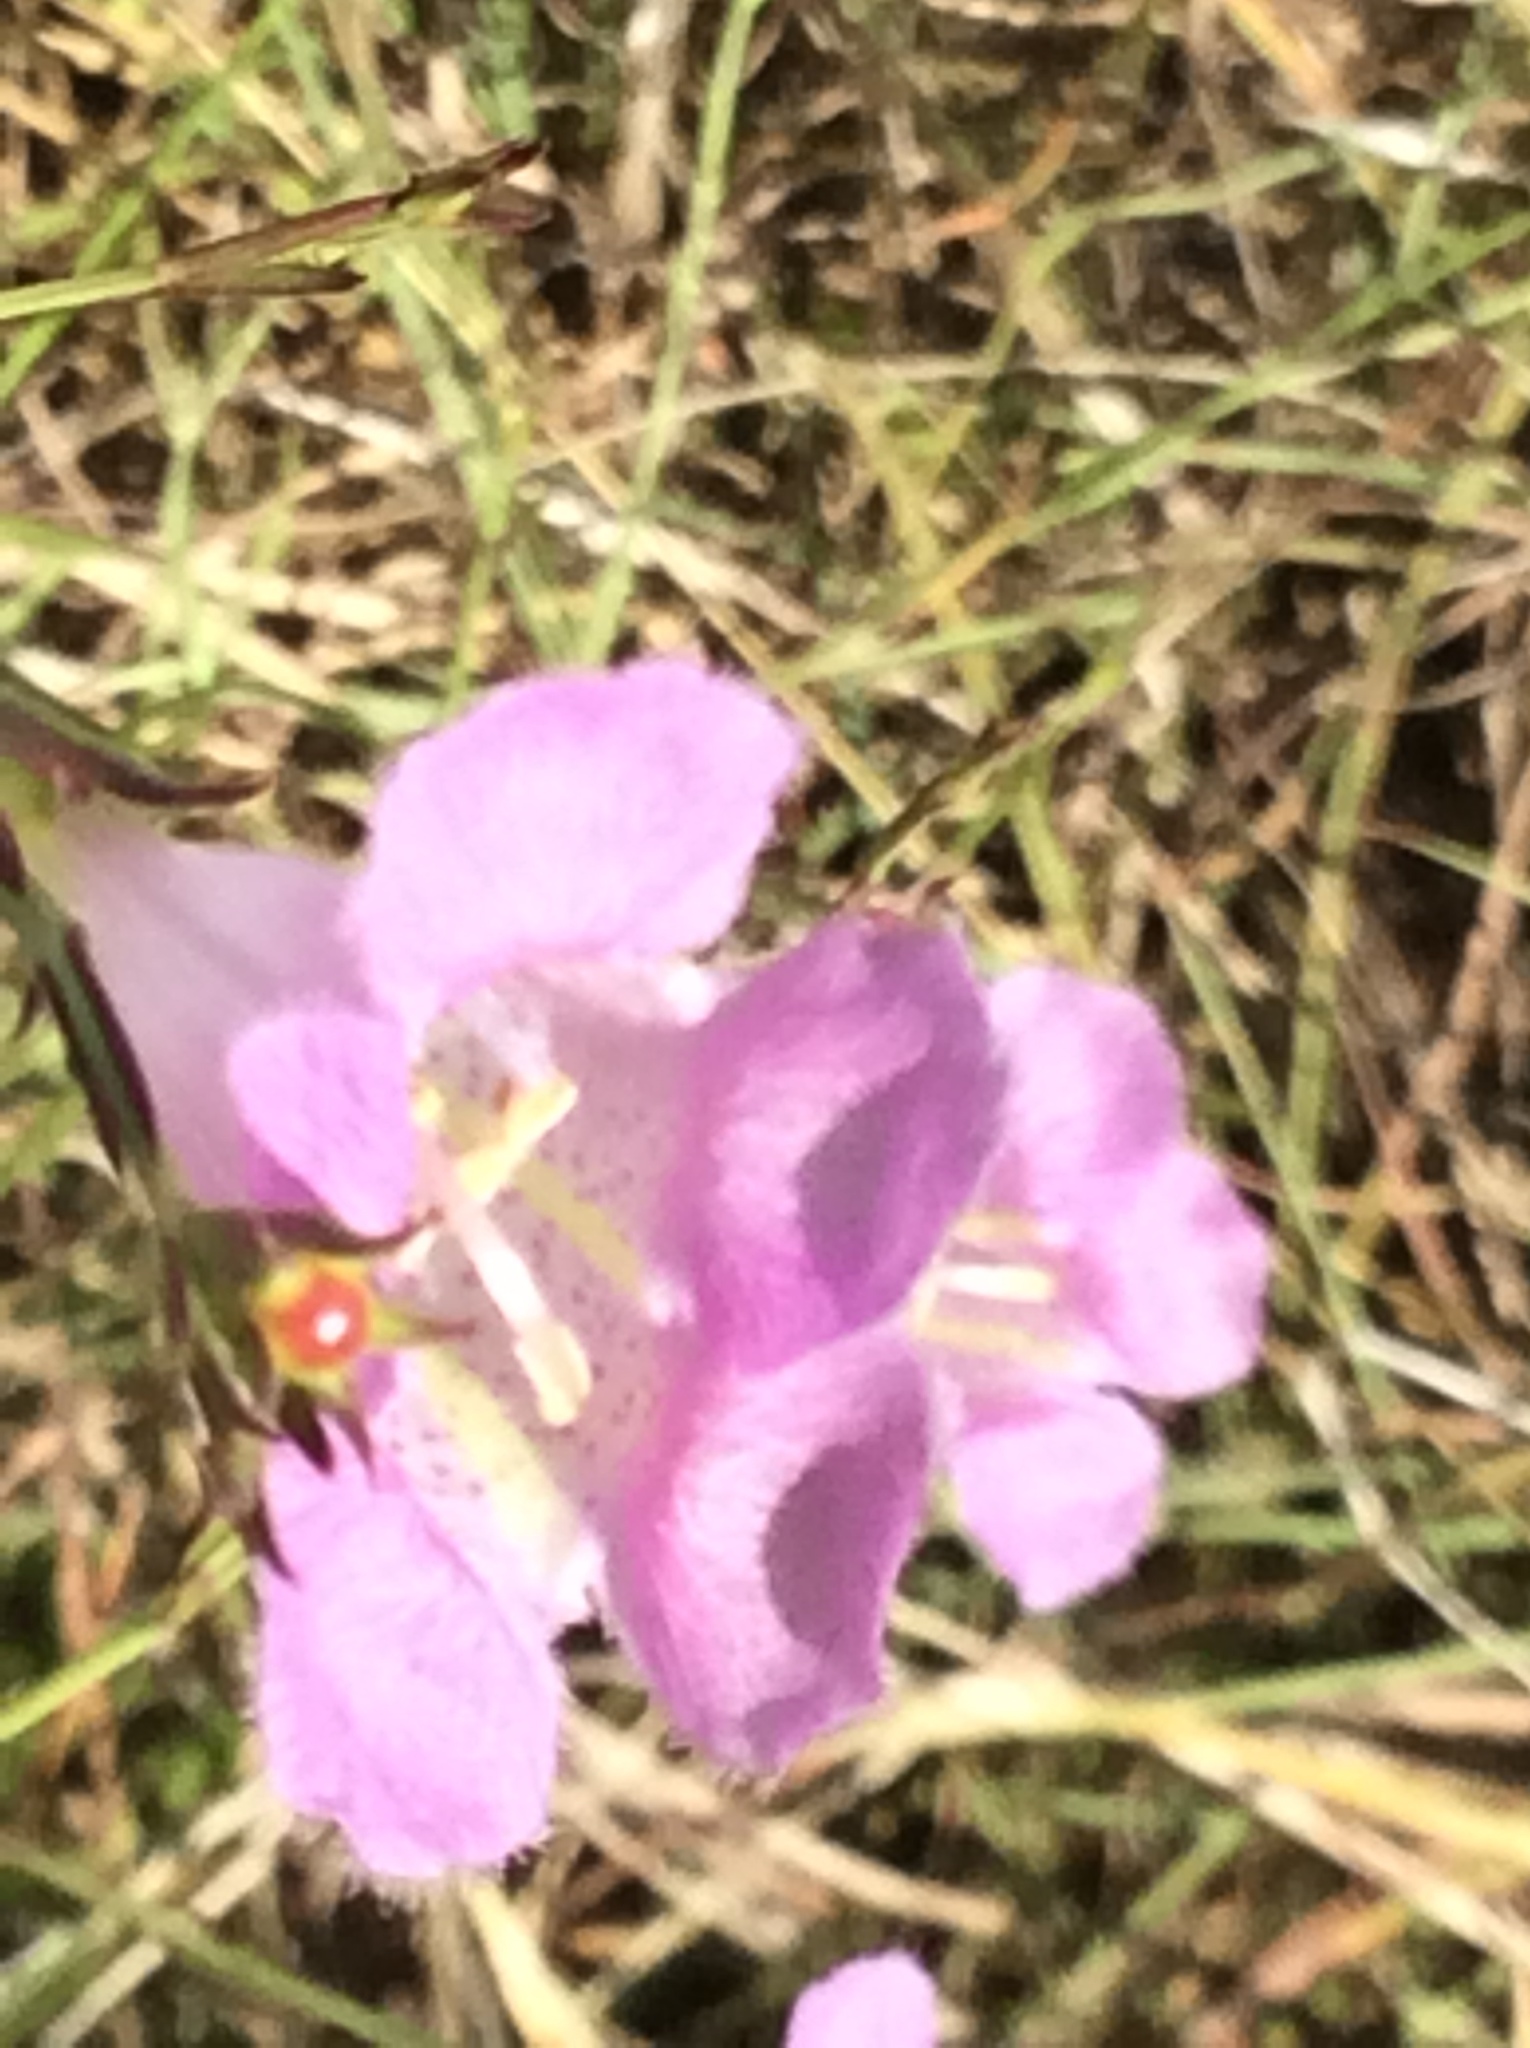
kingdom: Plantae
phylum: Tracheophyta
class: Magnoliopsida
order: Lamiales
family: Orobanchaceae
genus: Agalinis
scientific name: Agalinis heterophylla
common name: Prairie agalinis
